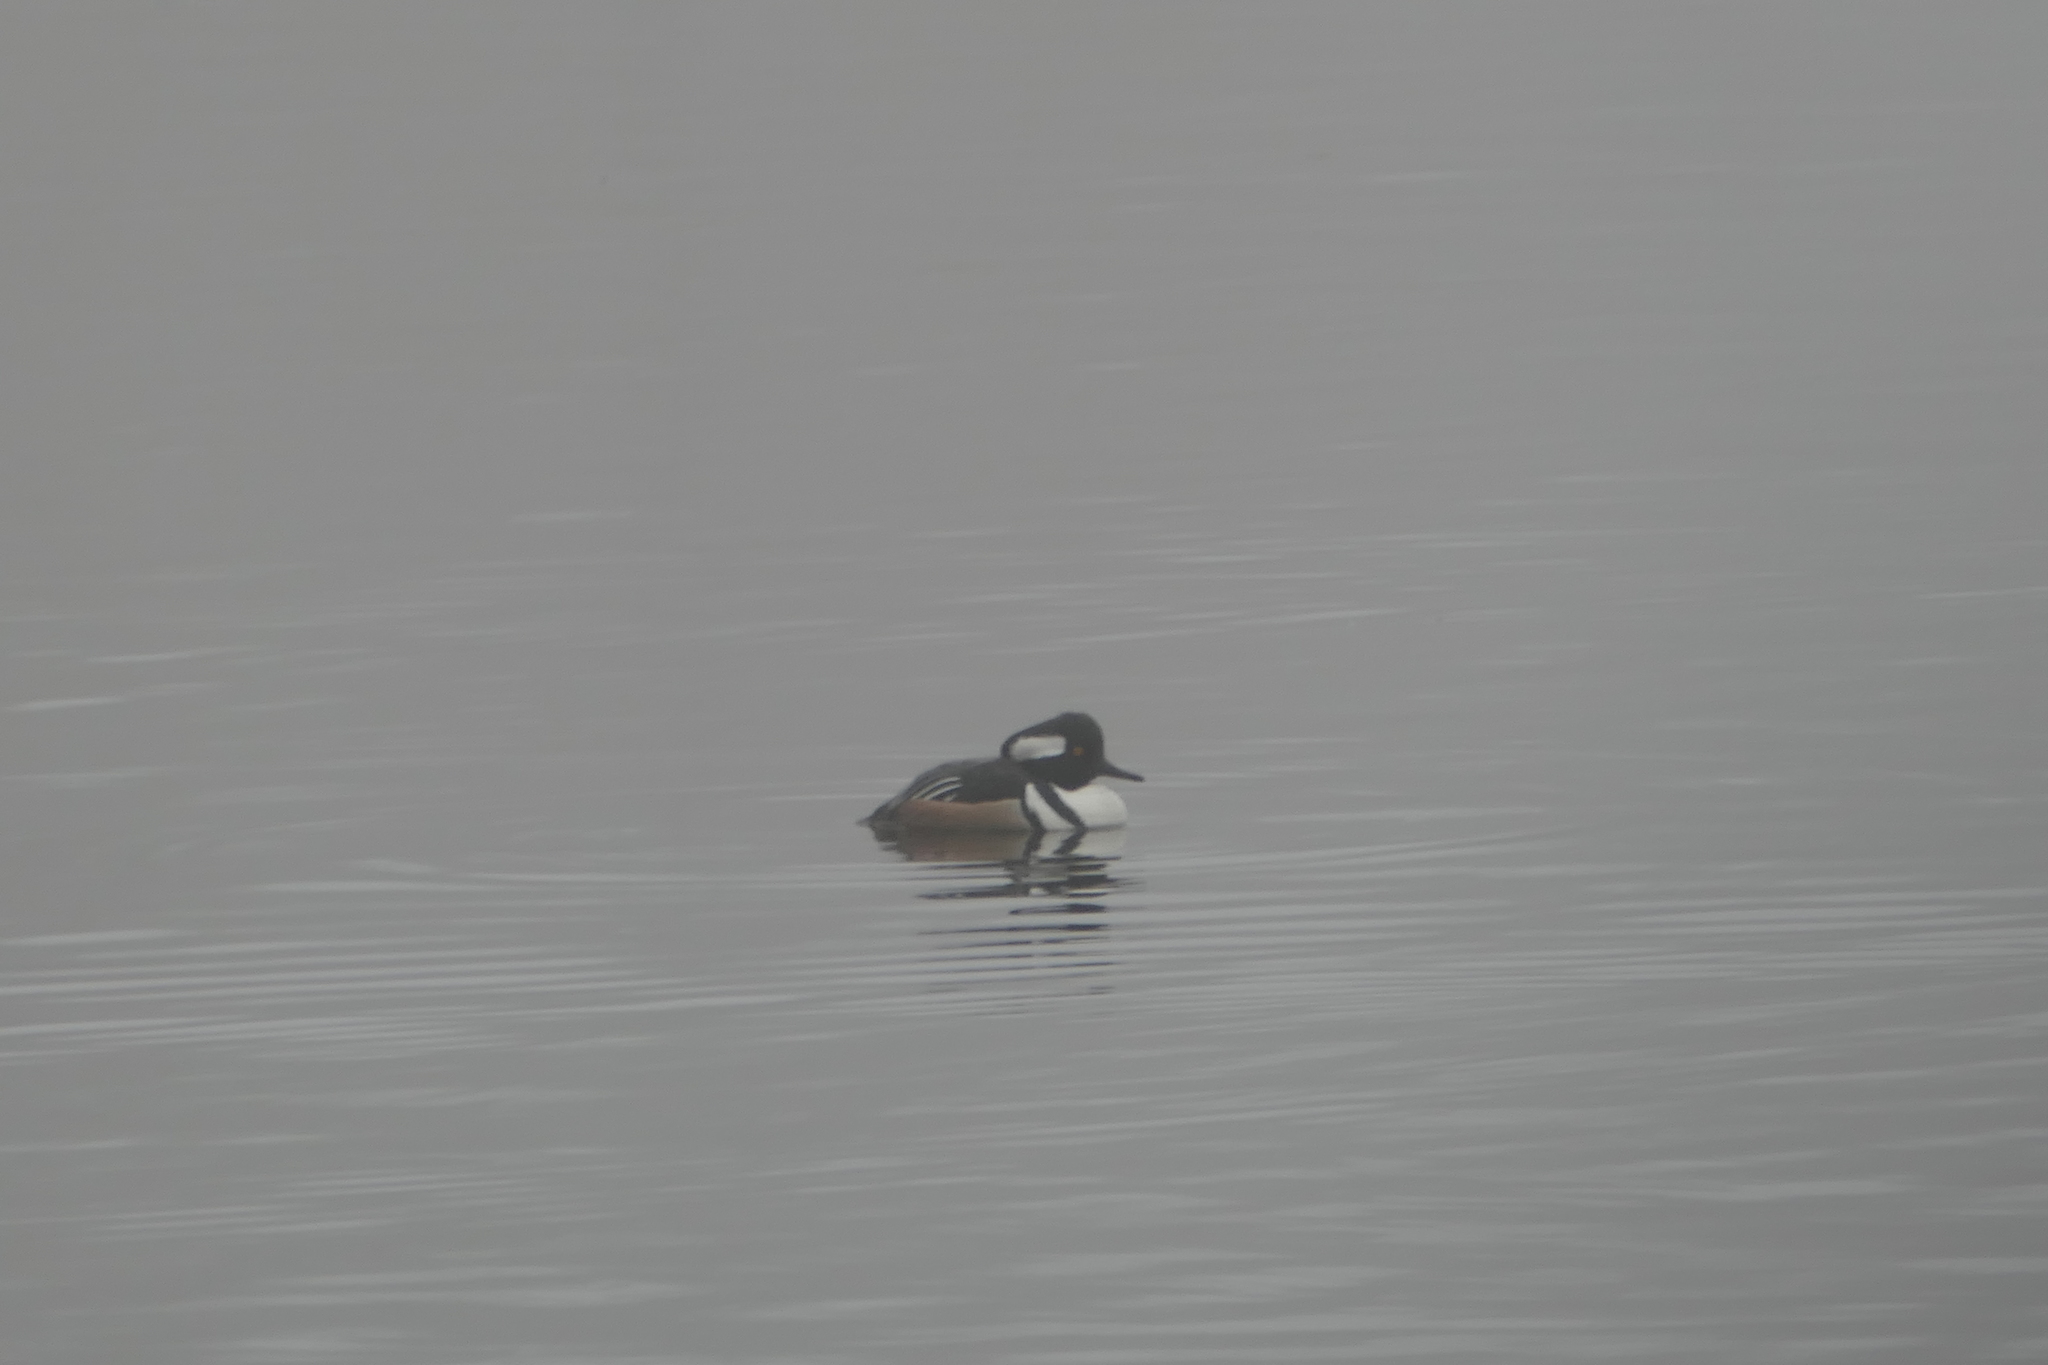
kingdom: Animalia
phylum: Chordata
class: Aves
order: Anseriformes
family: Anatidae
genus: Lophodytes
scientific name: Lophodytes cucullatus
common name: Hooded merganser
